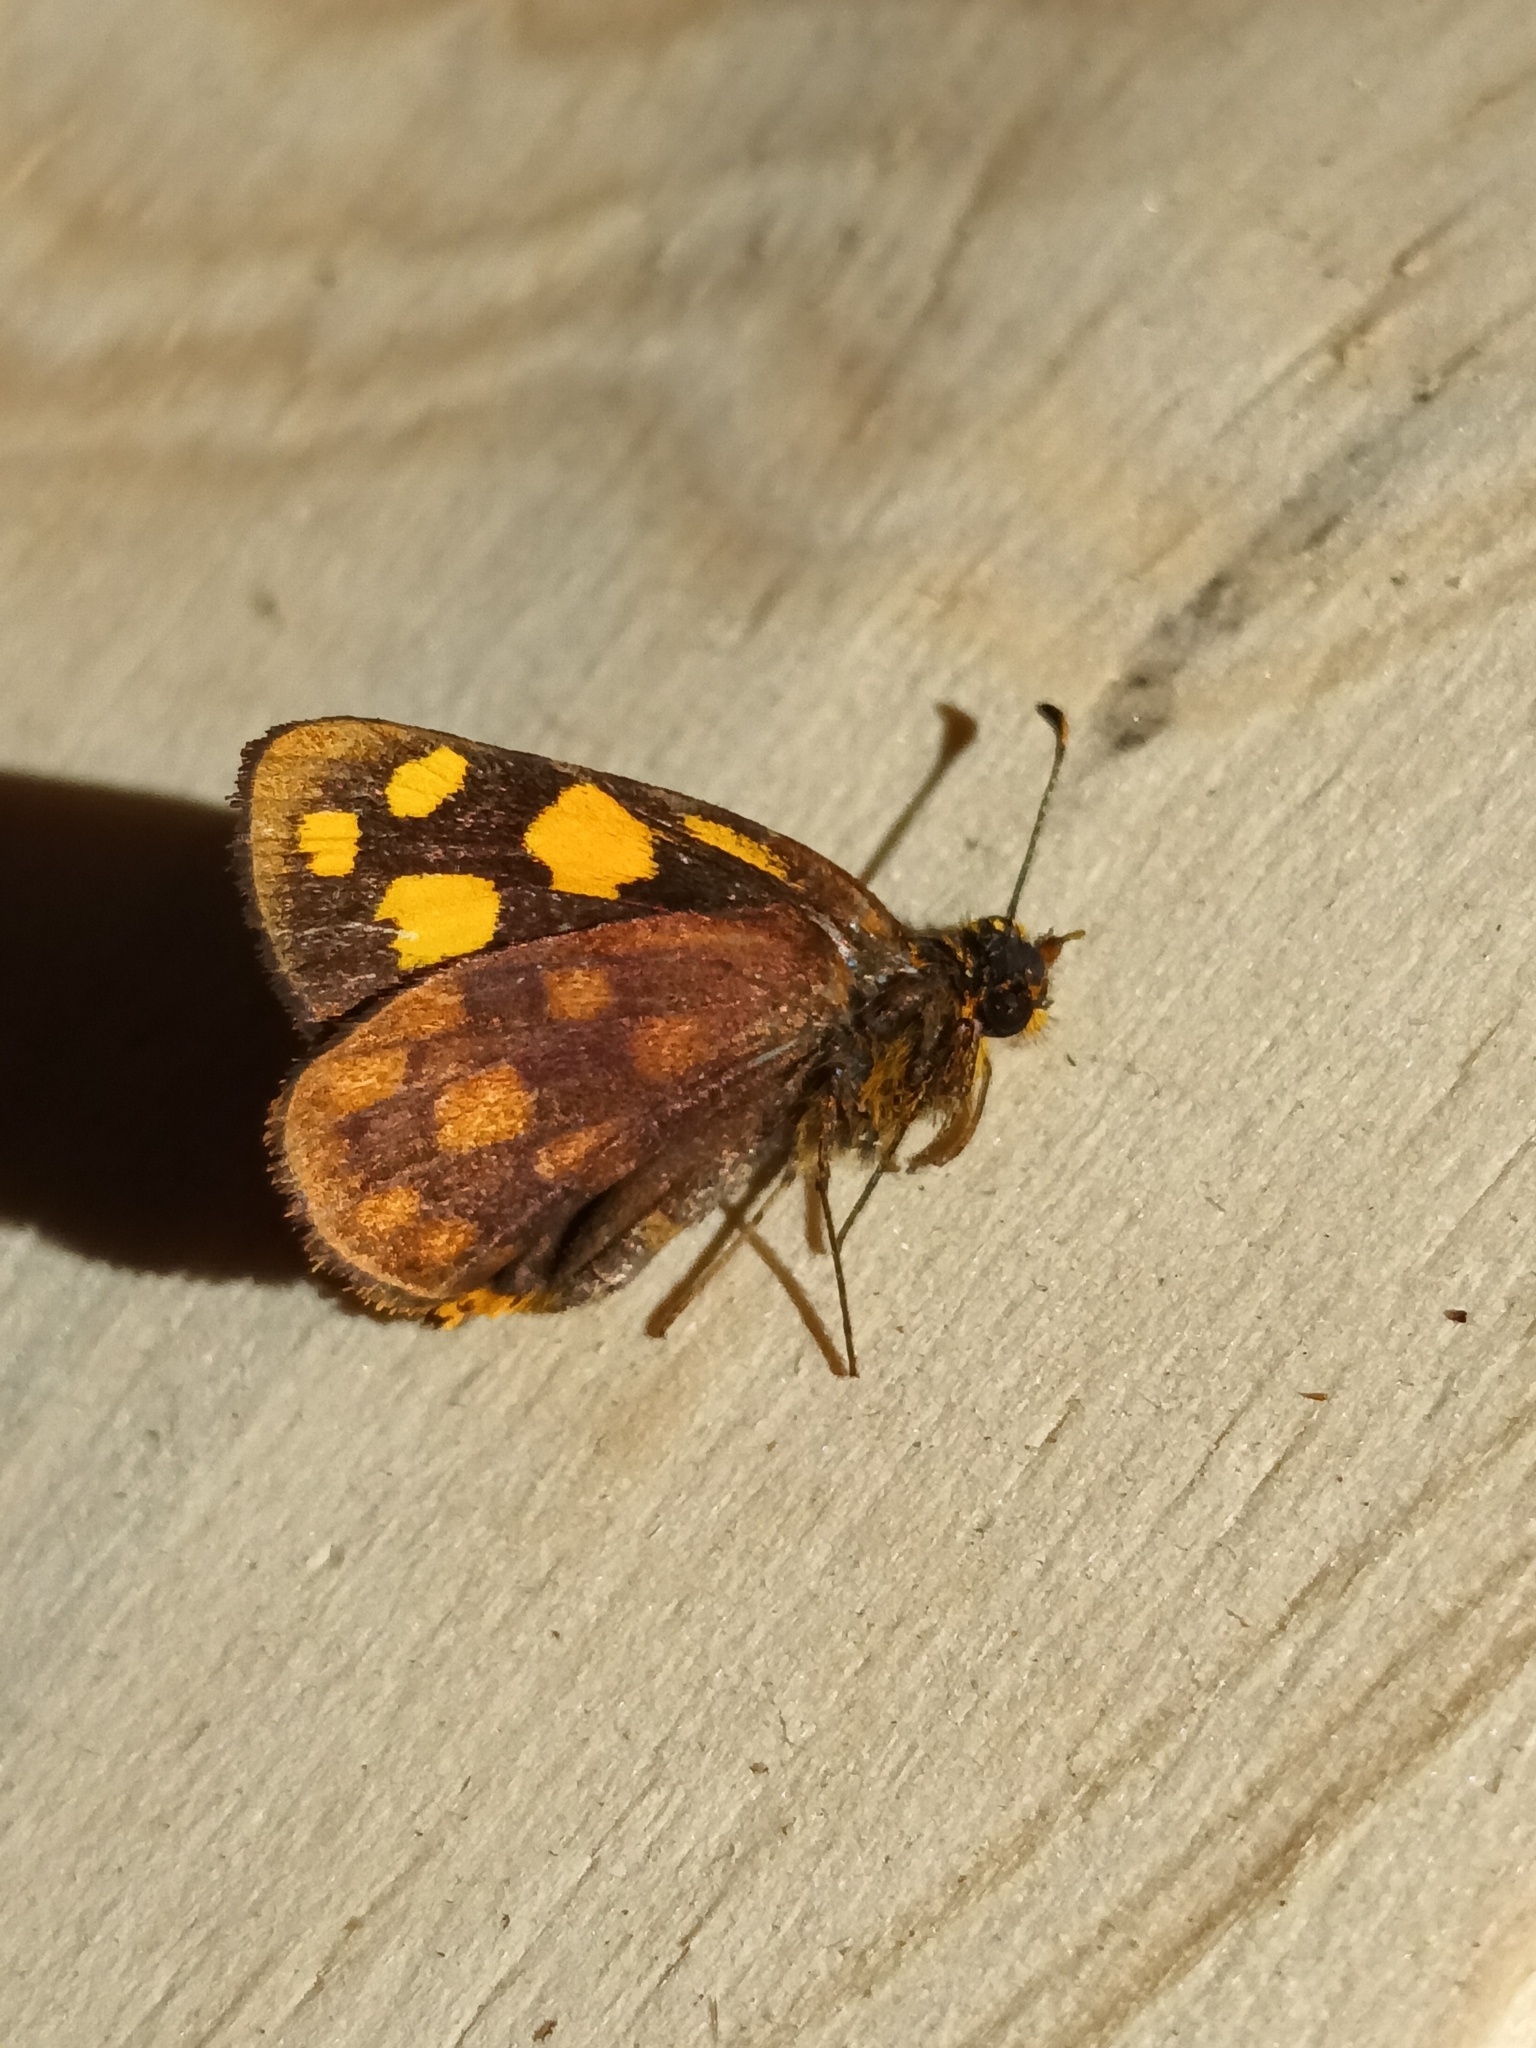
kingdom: Animalia
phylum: Arthropoda
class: Insecta
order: Lepidoptera
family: Hesperiidae
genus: Metisella
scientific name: Metisella metis
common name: Western gold-spotted sylph
